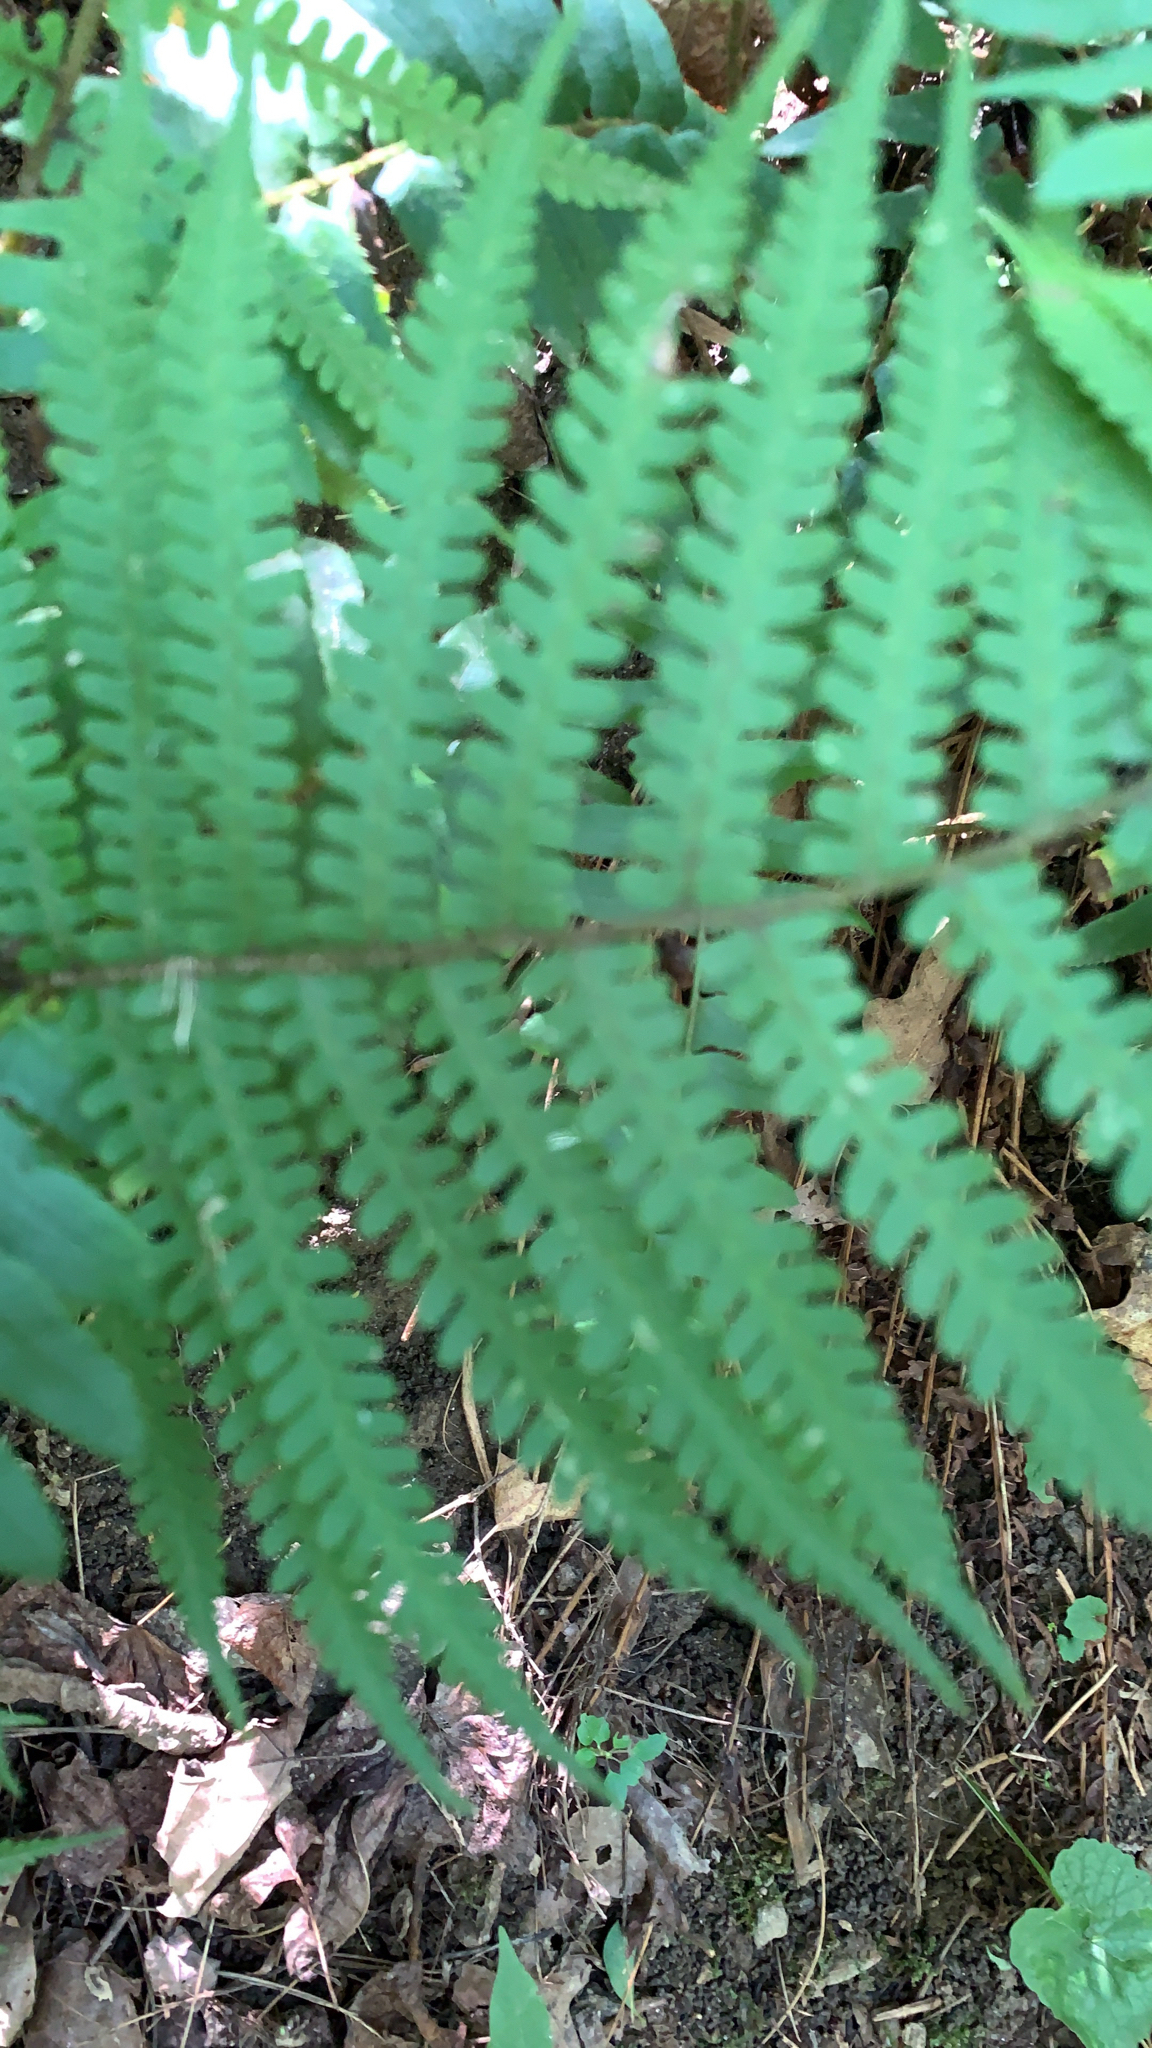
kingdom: Plantae
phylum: Tracheophyta
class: Polypodiopsida
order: Polypodiales
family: Athyriaceae
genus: Deparia
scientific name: Deparia acrostichoides
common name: Silver false spleenwort
